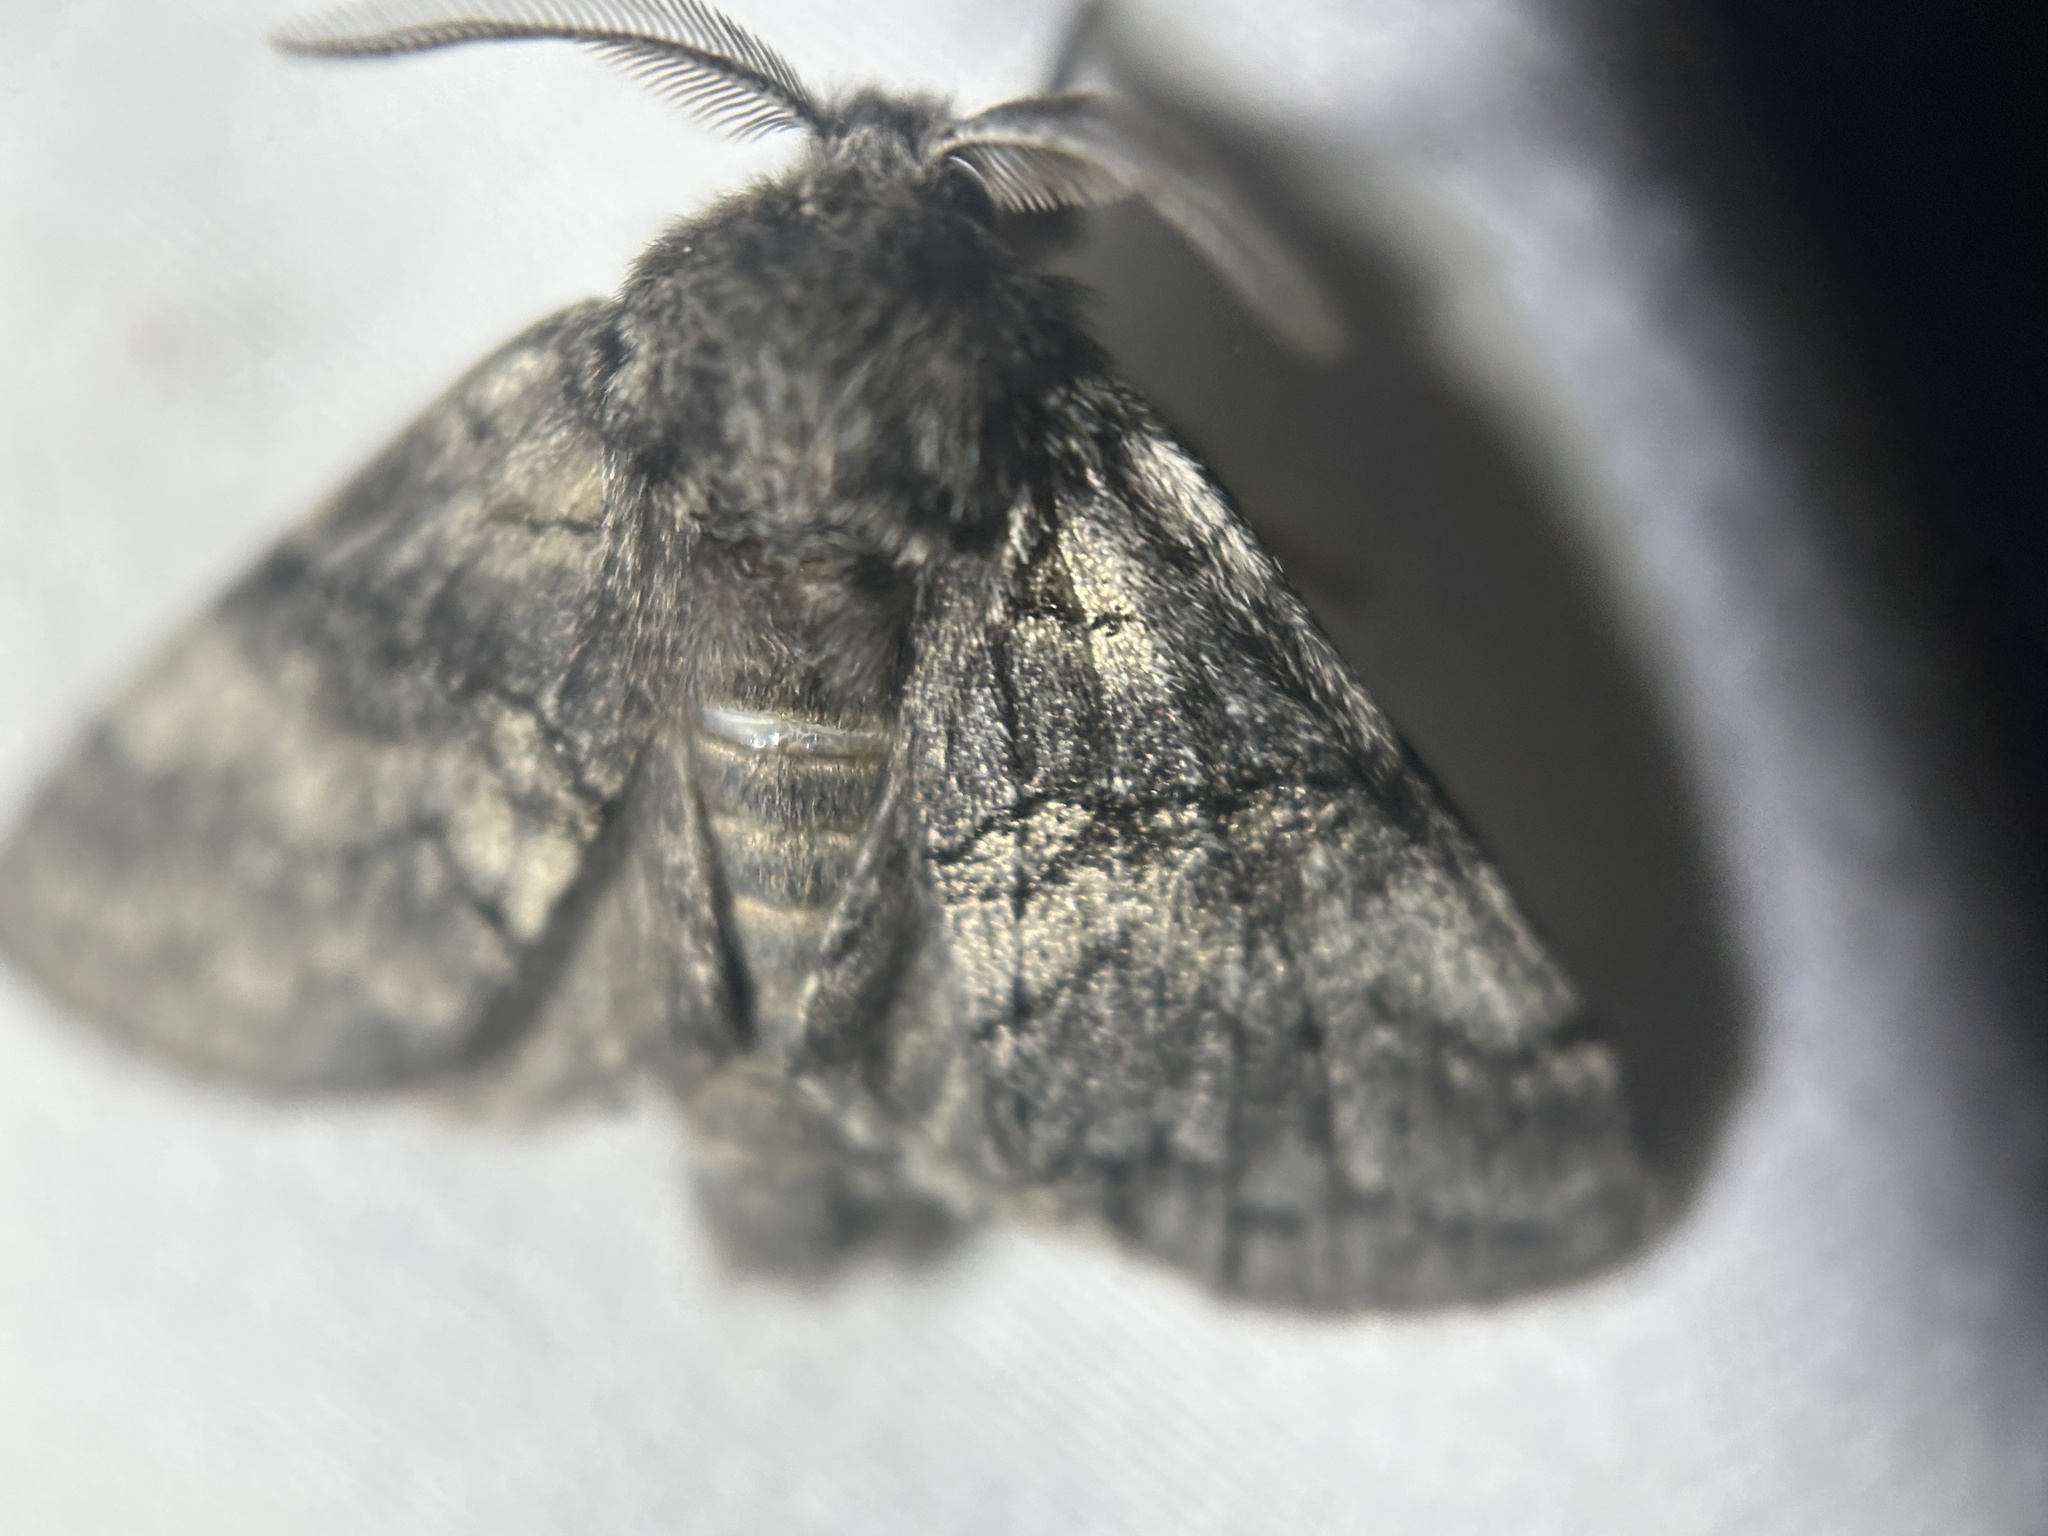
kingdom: Animalia
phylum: Arthropoda
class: Insecta
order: Lepidoptera
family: Notodontidae
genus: Gluphisia
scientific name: Gluphisia septentrionis
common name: Common gluphisia
